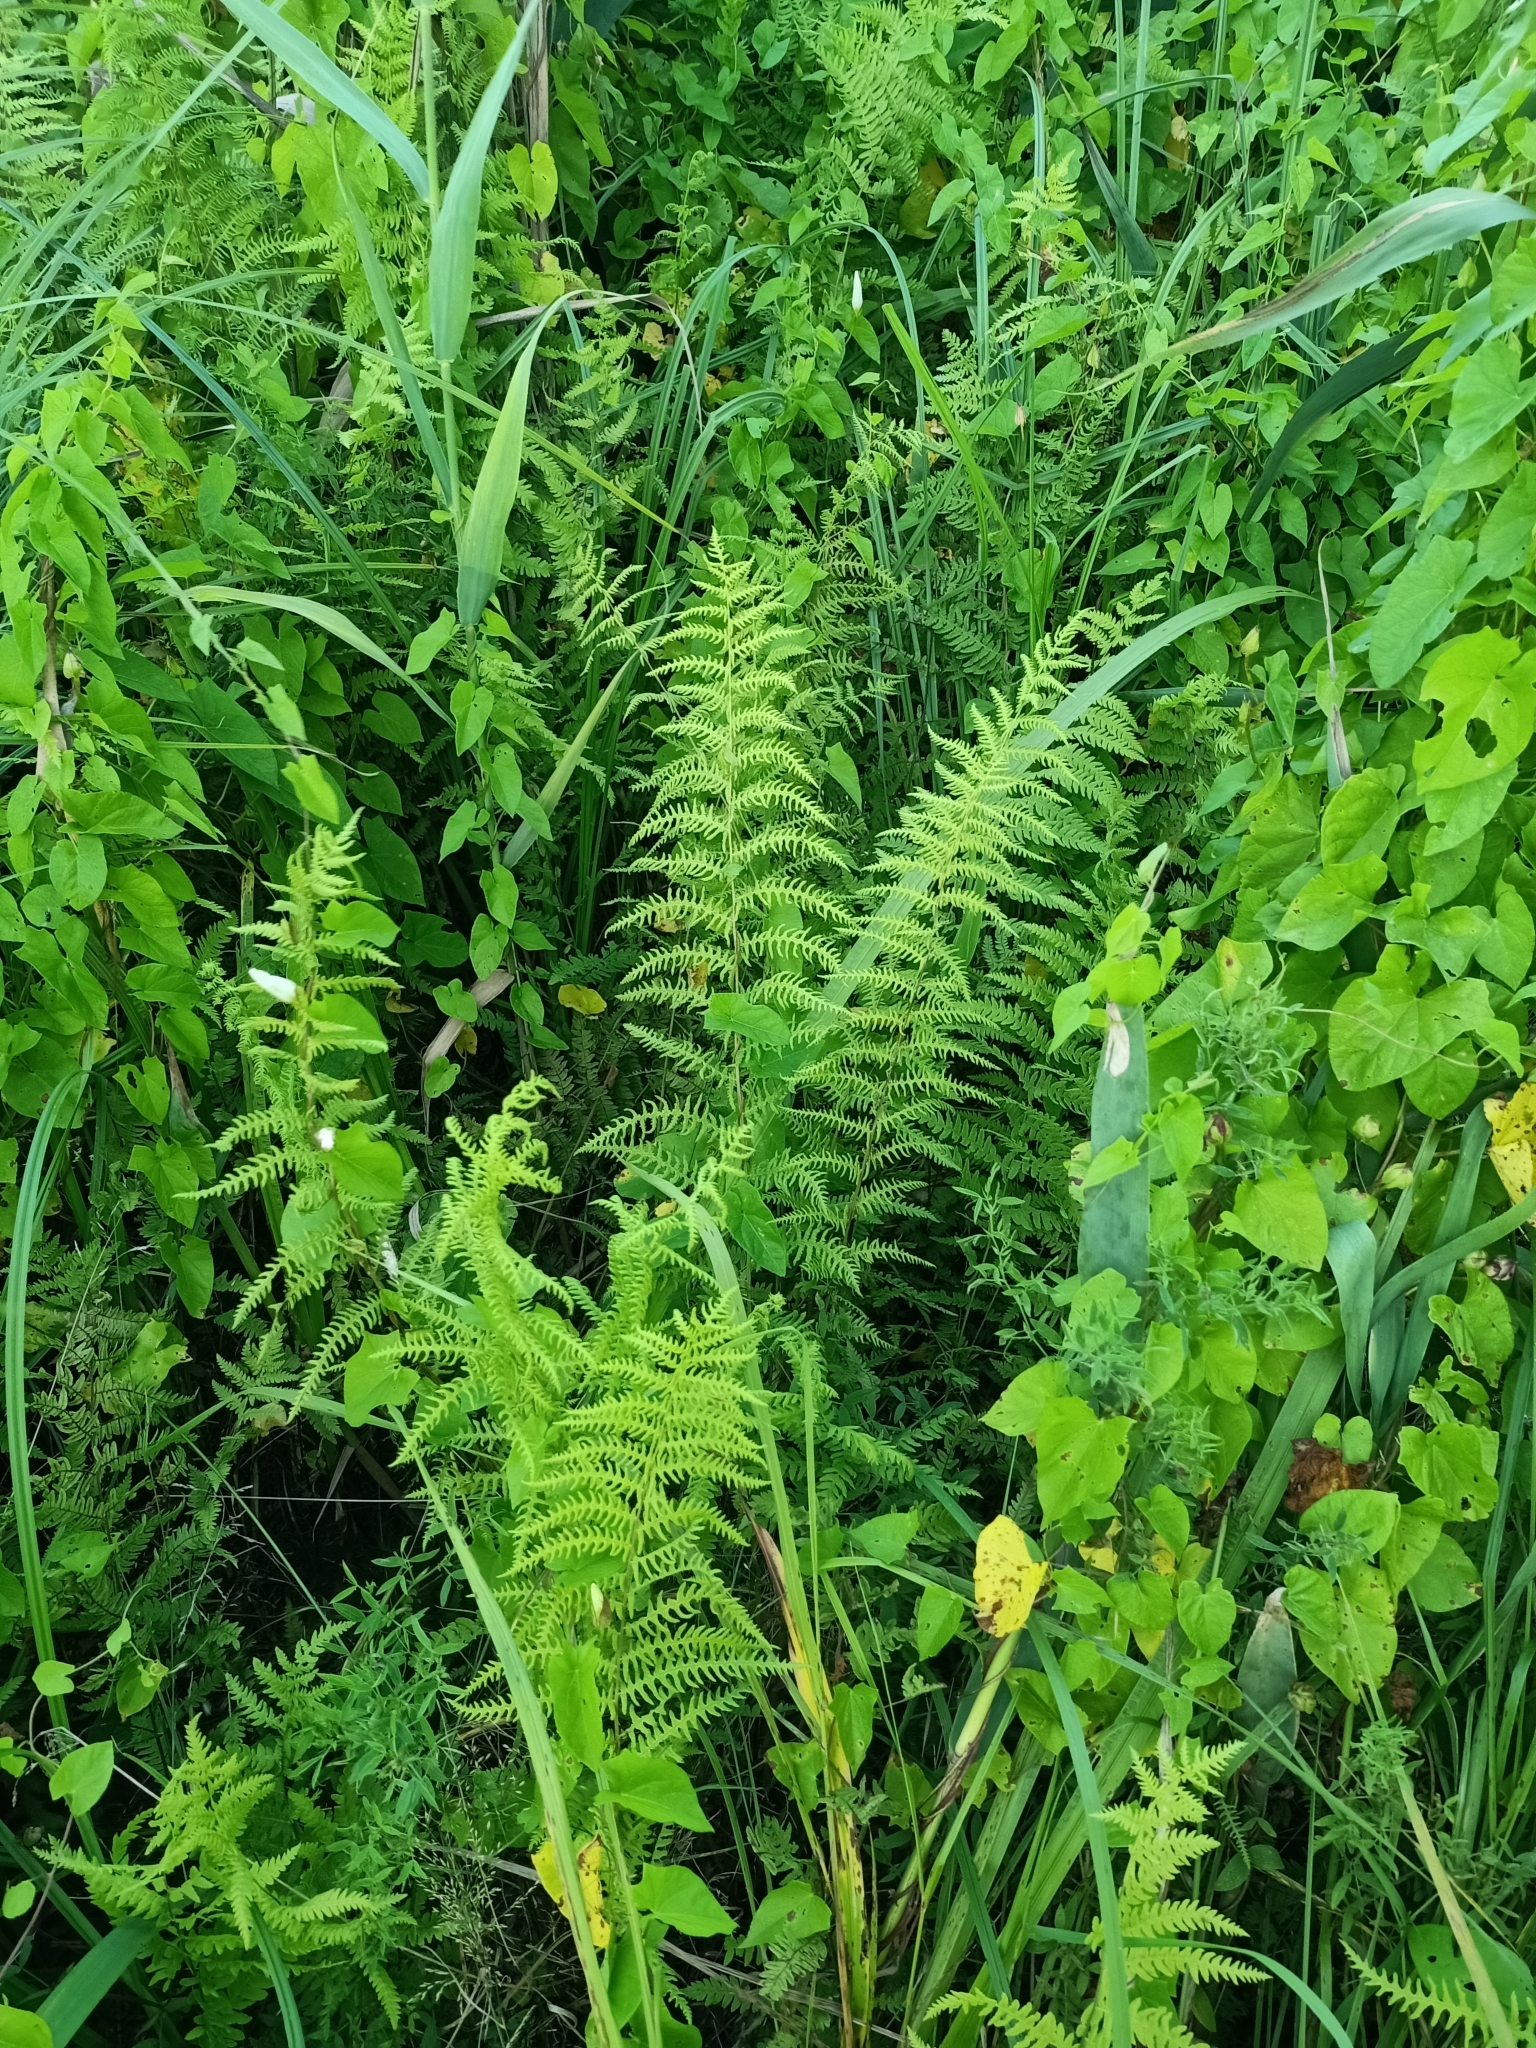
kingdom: Plantae
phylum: Tracheophyta
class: Polypodiopsida
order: Polypodiales
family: Thelypteridaceae
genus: Thelypteris
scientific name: Thelypteris palustris
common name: Marsh fern
